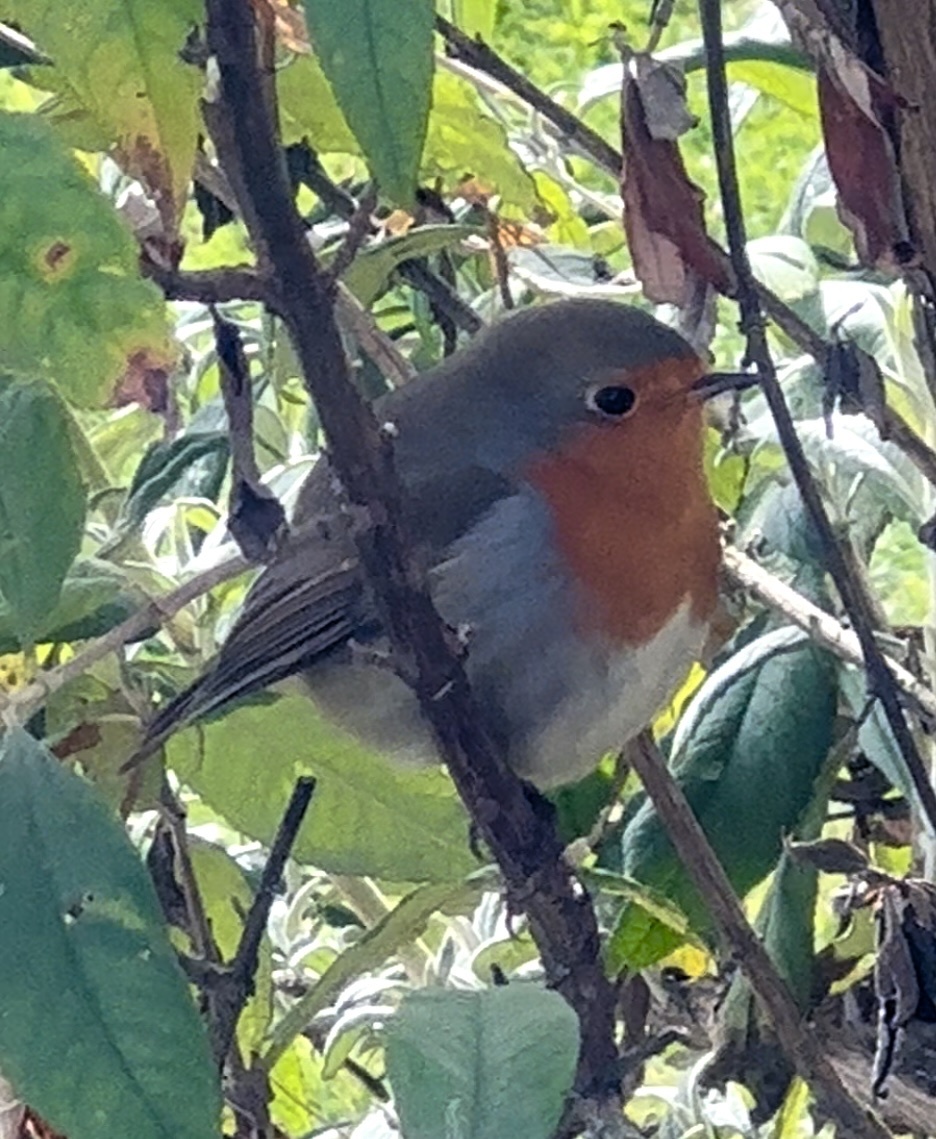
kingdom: Animalia
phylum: Chordata
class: Aves
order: Passeriformes
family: Muscicapidae
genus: Erithacus
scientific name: Erithacus rubecula
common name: European robin
